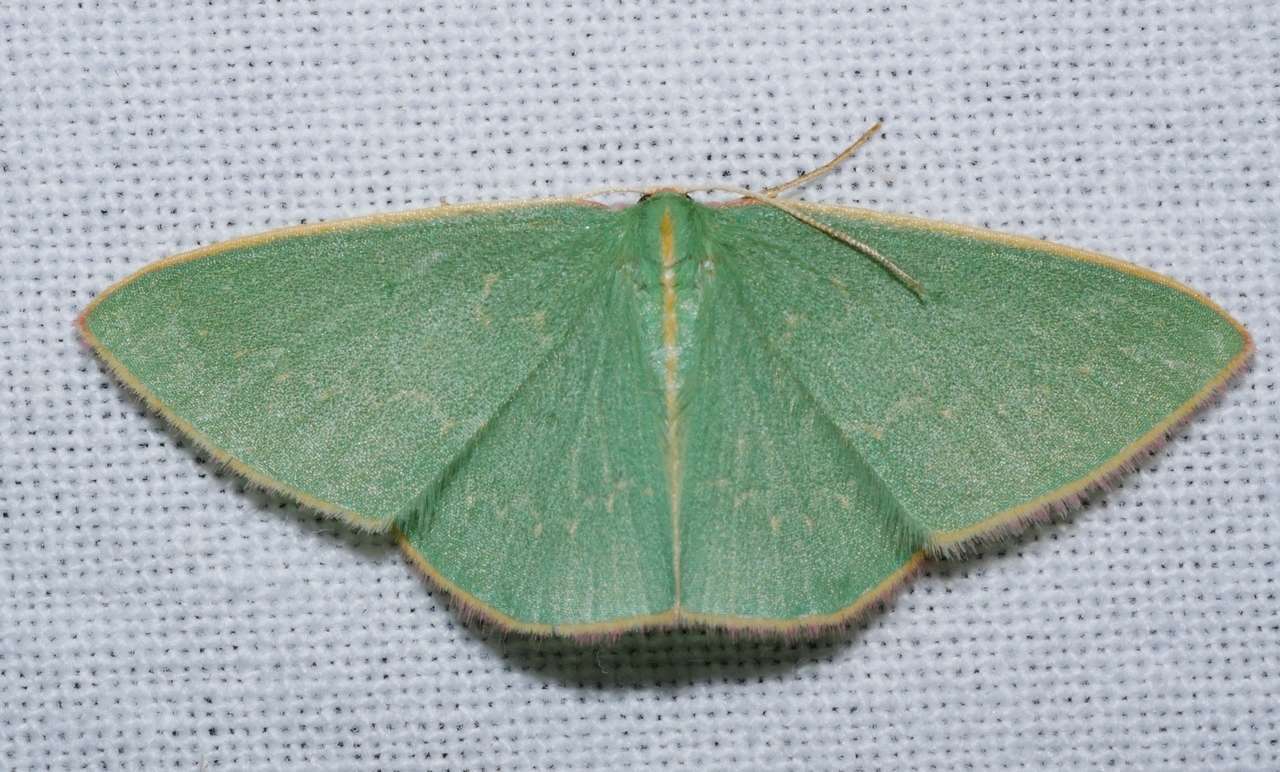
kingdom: Animalia
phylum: Arthropoda
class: Insecta
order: Lepidoptera
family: Geometridae
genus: Chlorocoma
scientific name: Chlorocoma dichloraria
